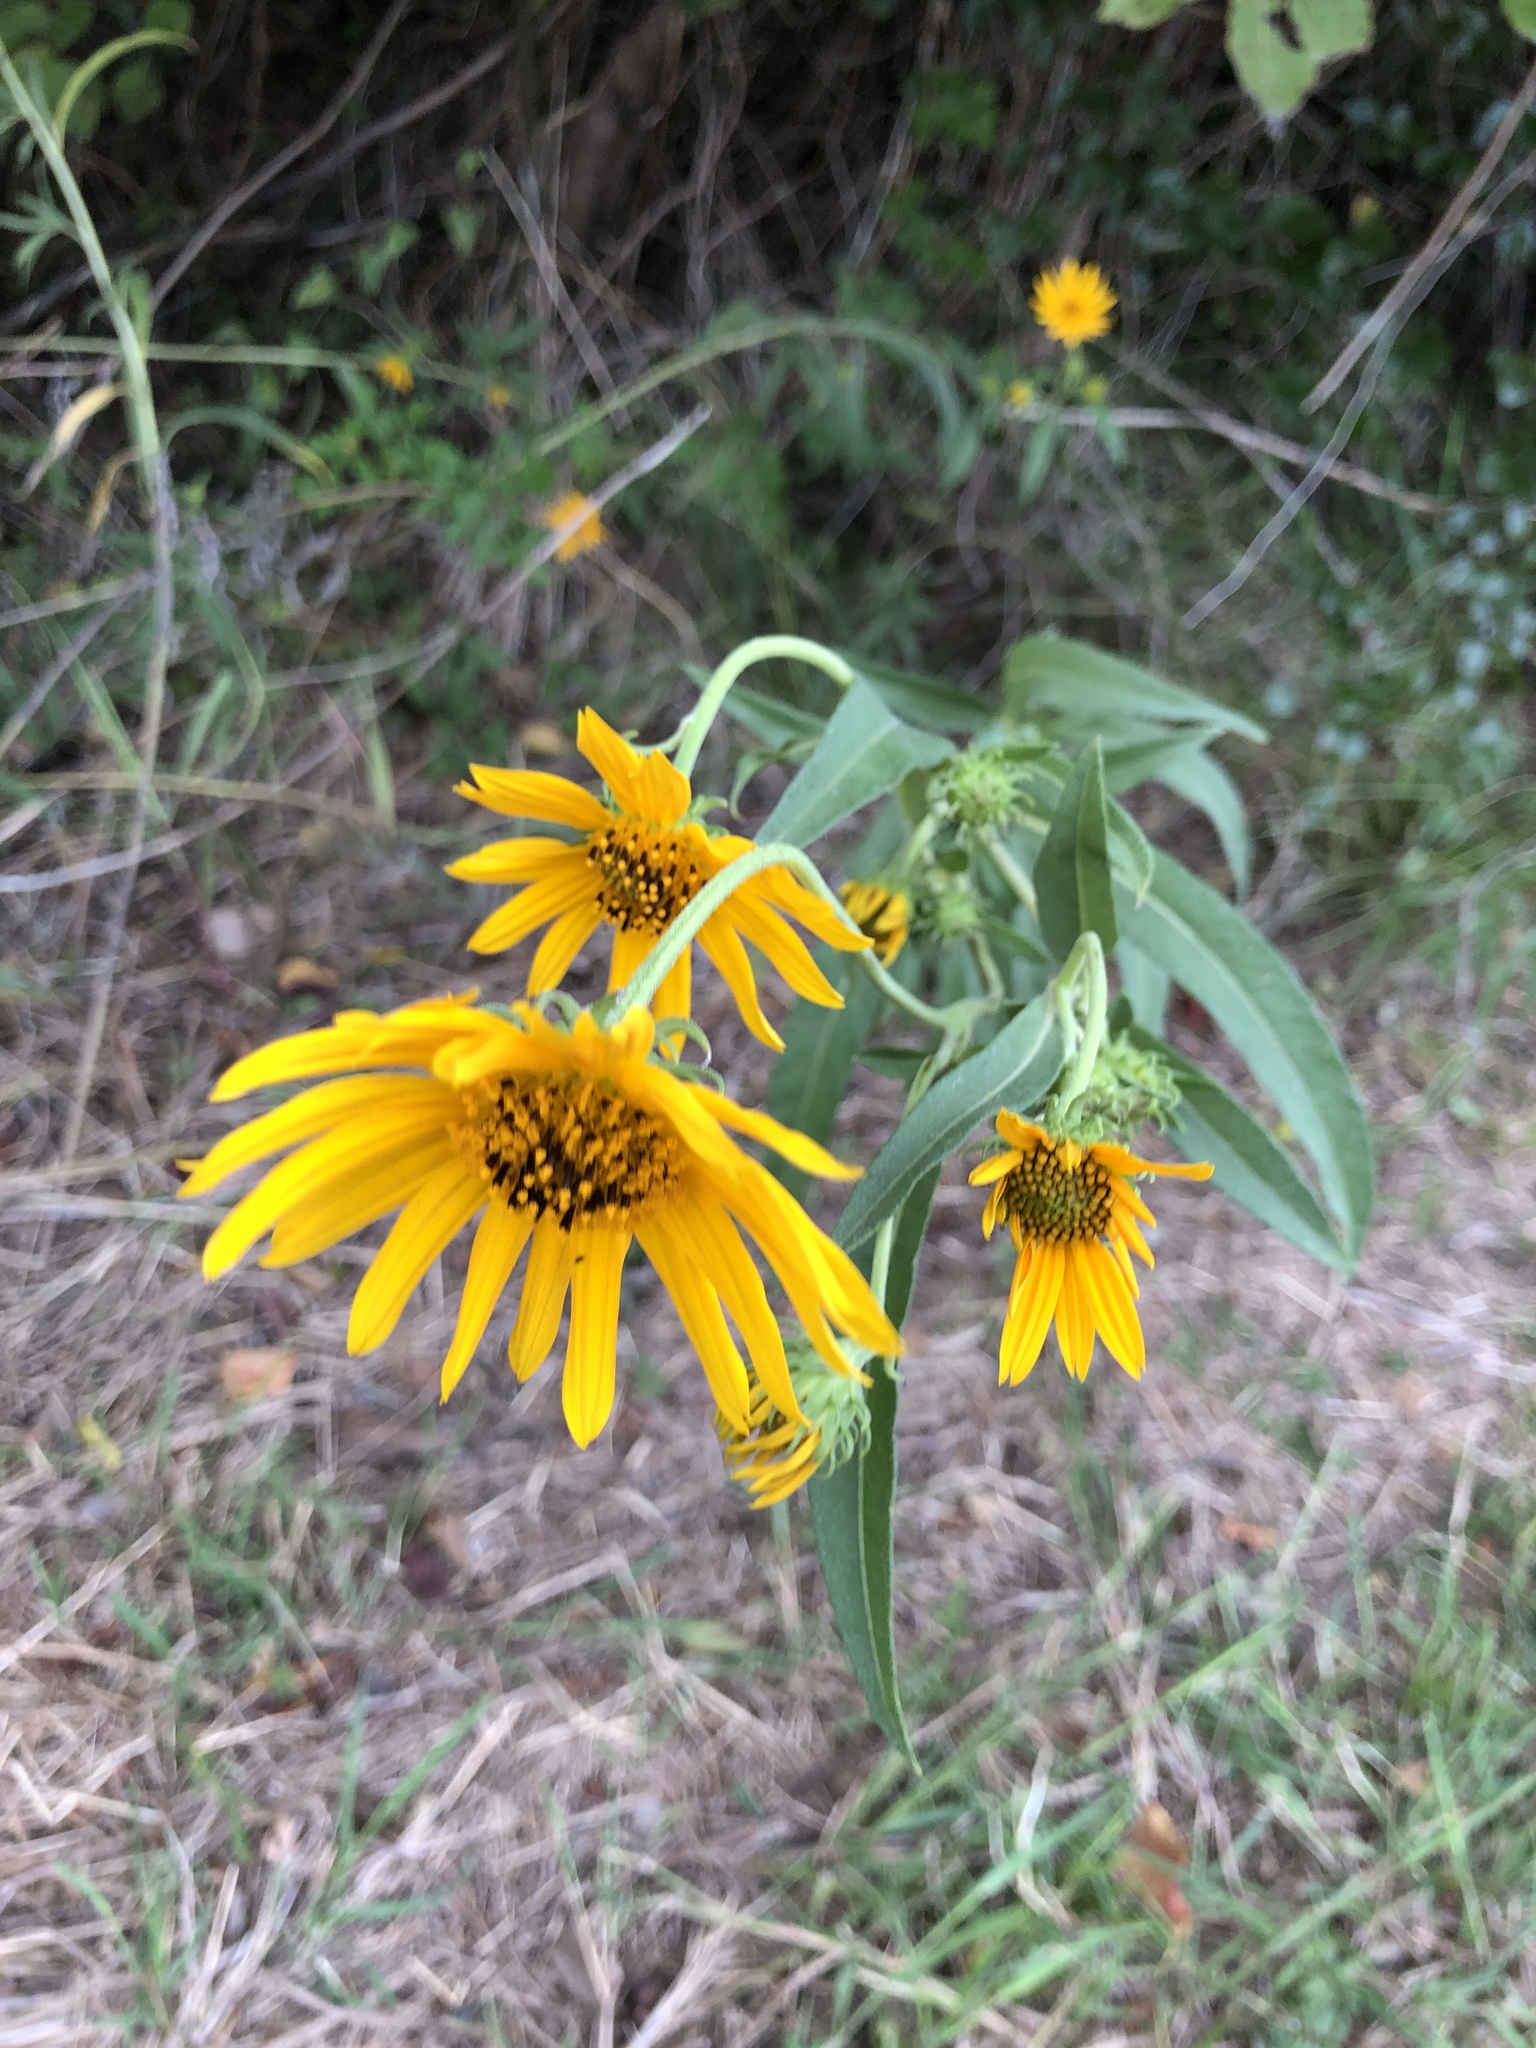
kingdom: Plantae
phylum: Tracheophyta
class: Magnoliopsida
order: Asterales
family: Asteraceae
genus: Helianthus
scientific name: Helianthus maximiliani
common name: Maximilian's sunflower
